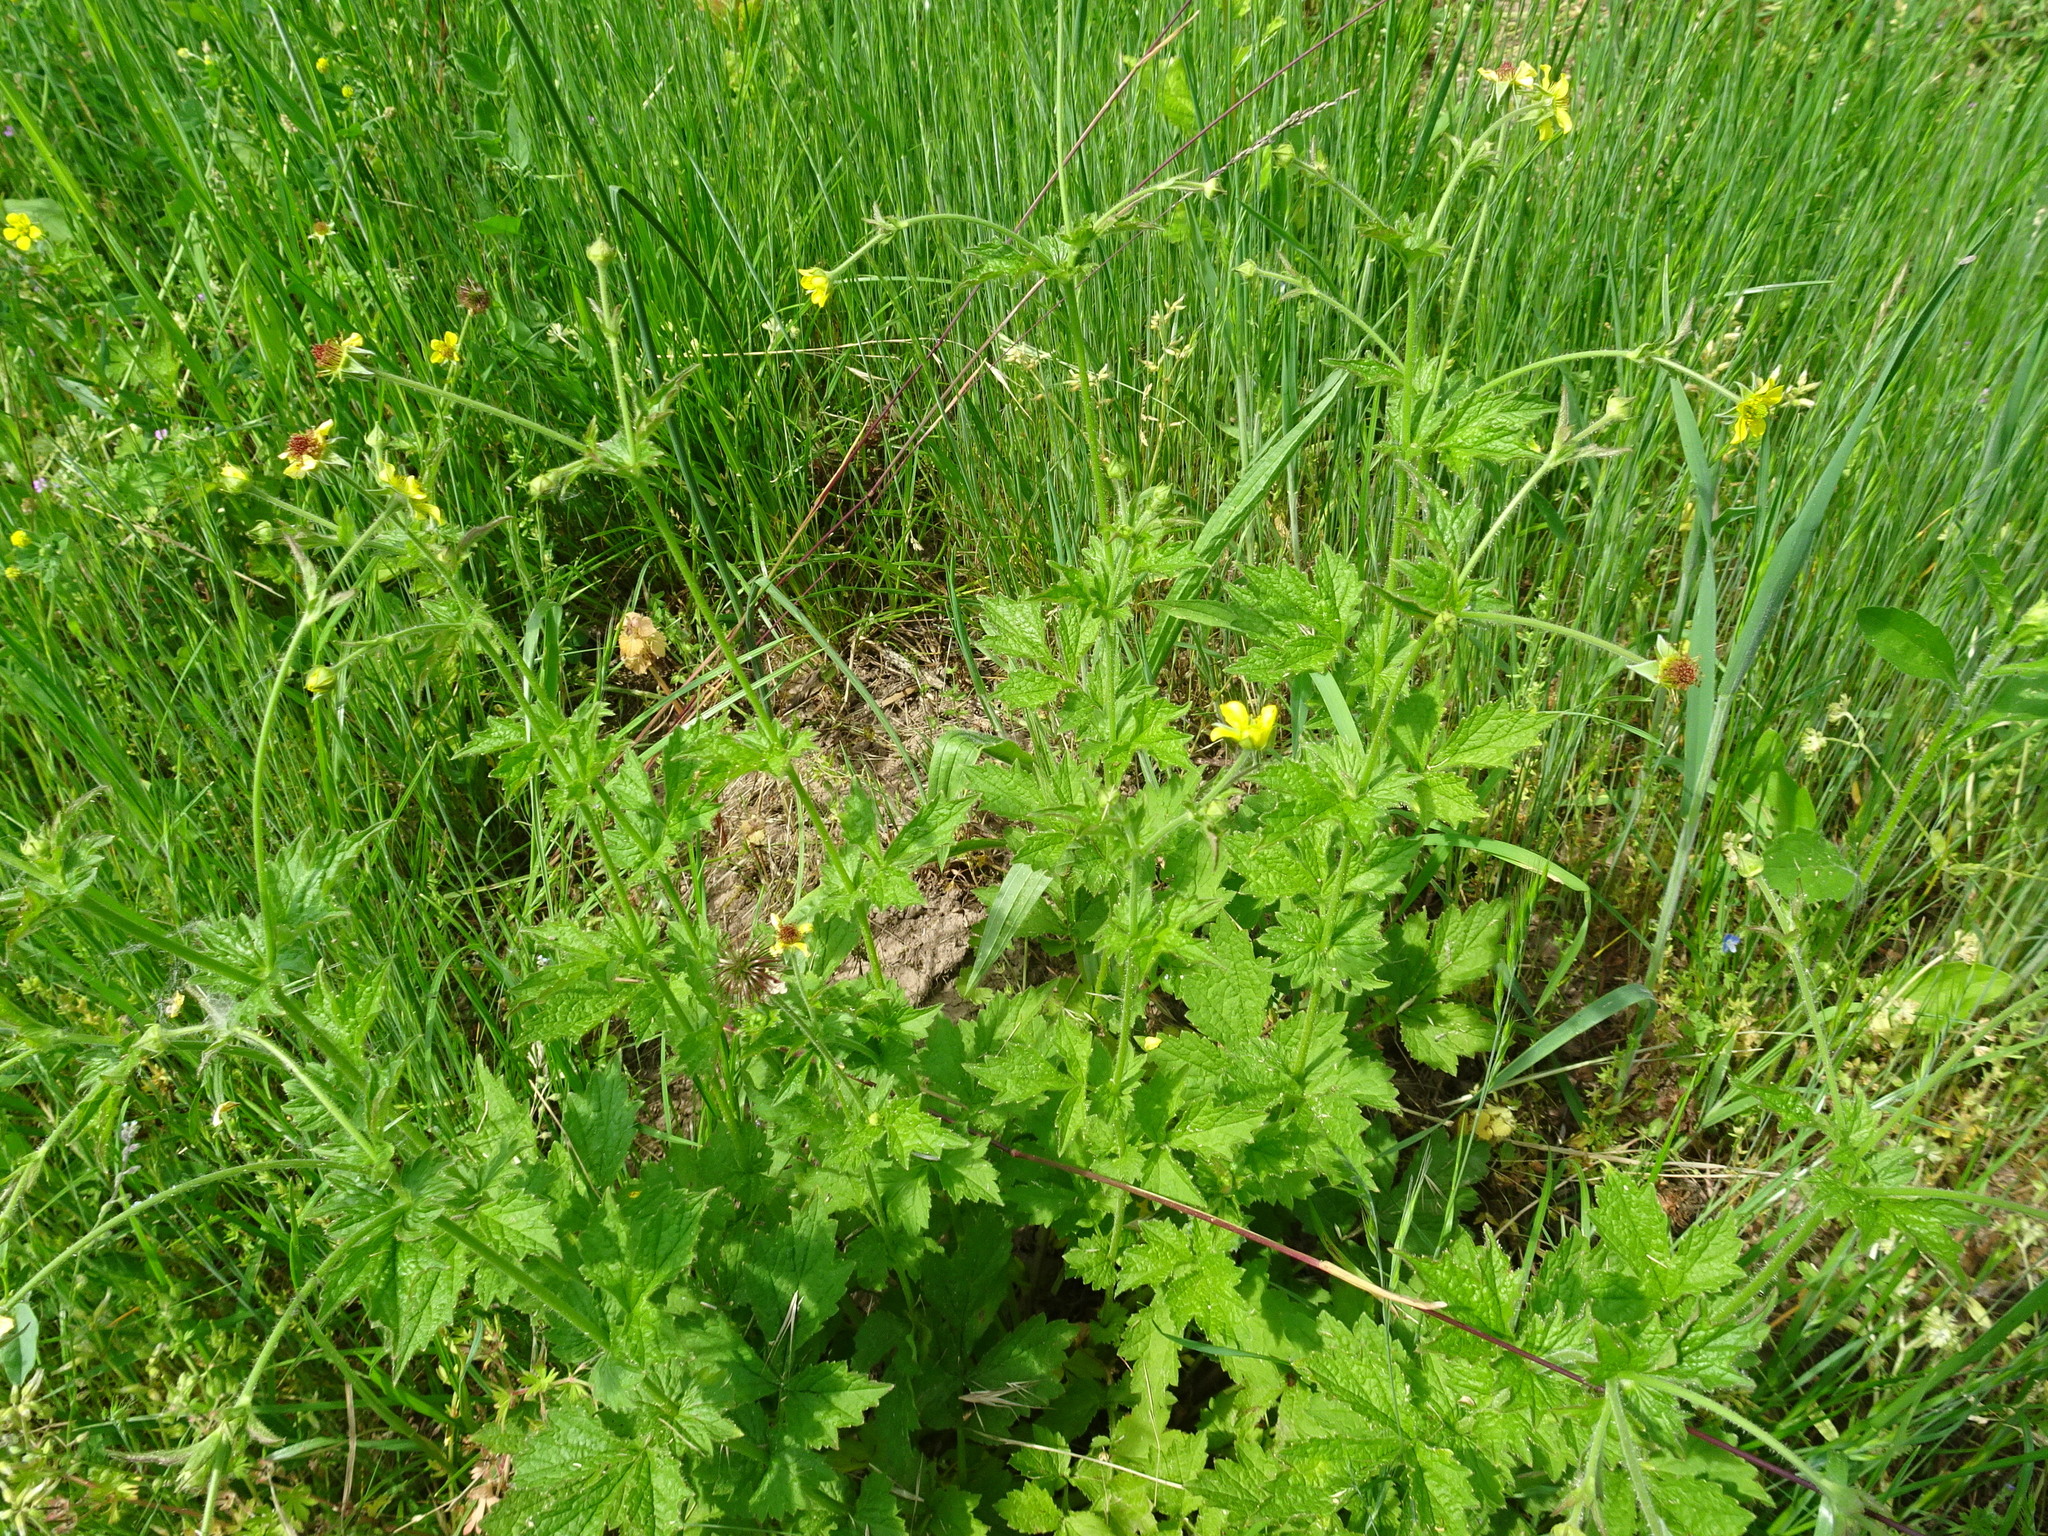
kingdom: Plantae
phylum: Tracheophyta
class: Magnoliopsida
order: Rosales
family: Rosaceae
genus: Geum
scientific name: Geum urbanum
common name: Wood avens
